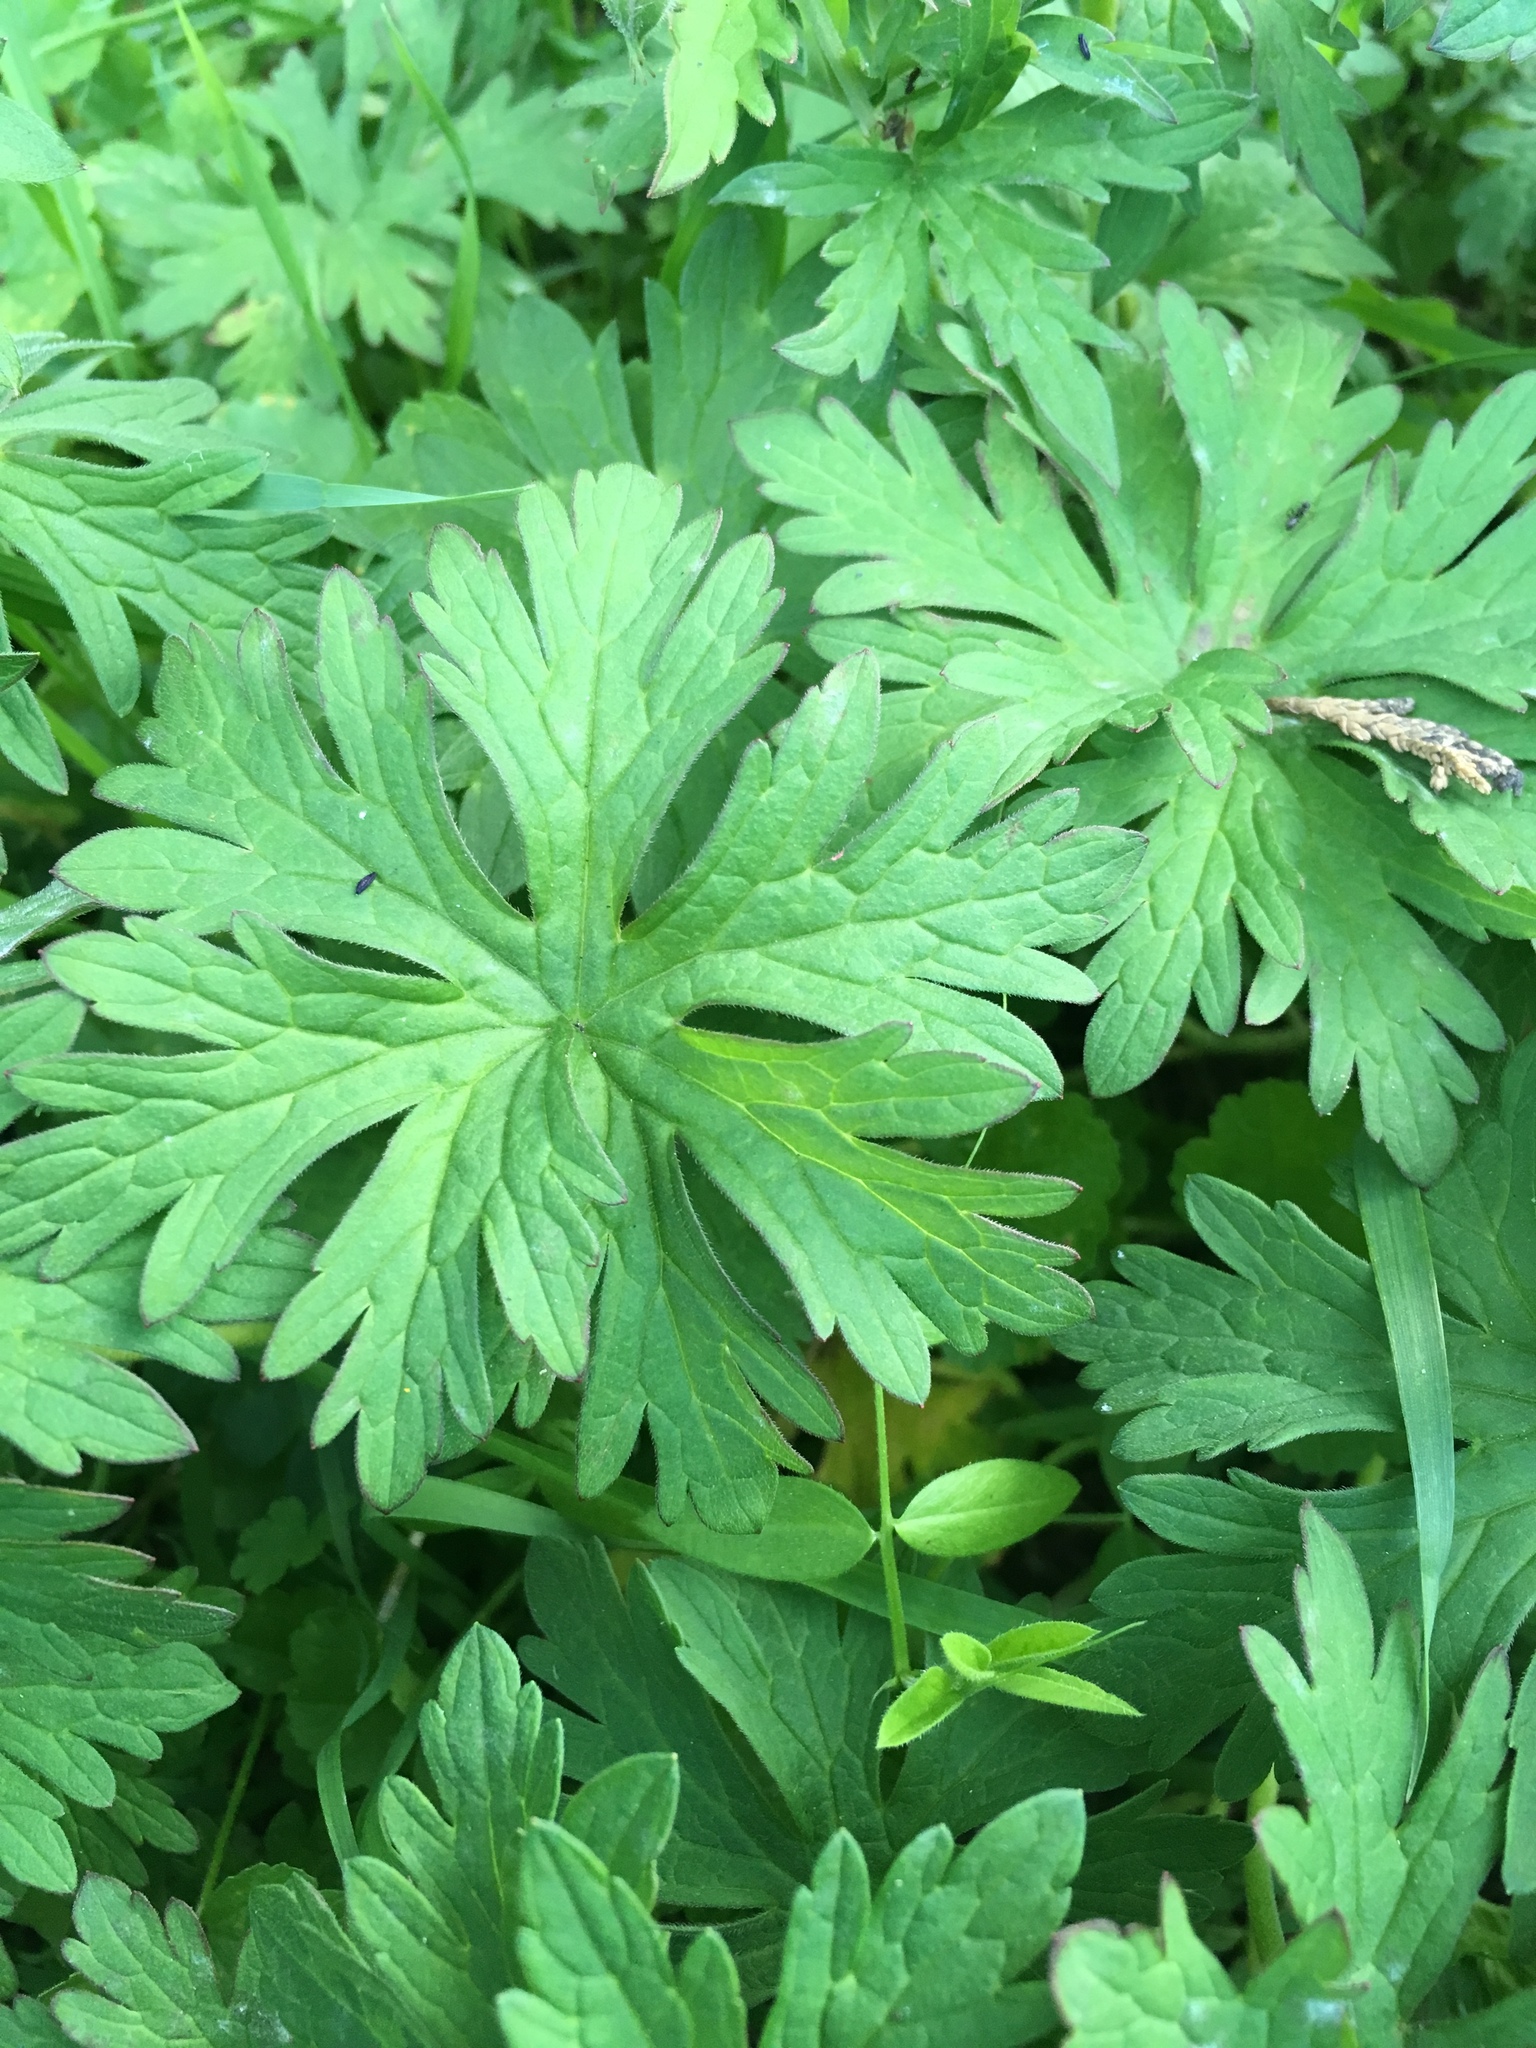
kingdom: Plantae
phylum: Tracheophyta
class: Magnoliopsida
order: Geraniales
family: Geraniaceae
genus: Geranium
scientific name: Geranium pratense
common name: Meadow crane's-bill
